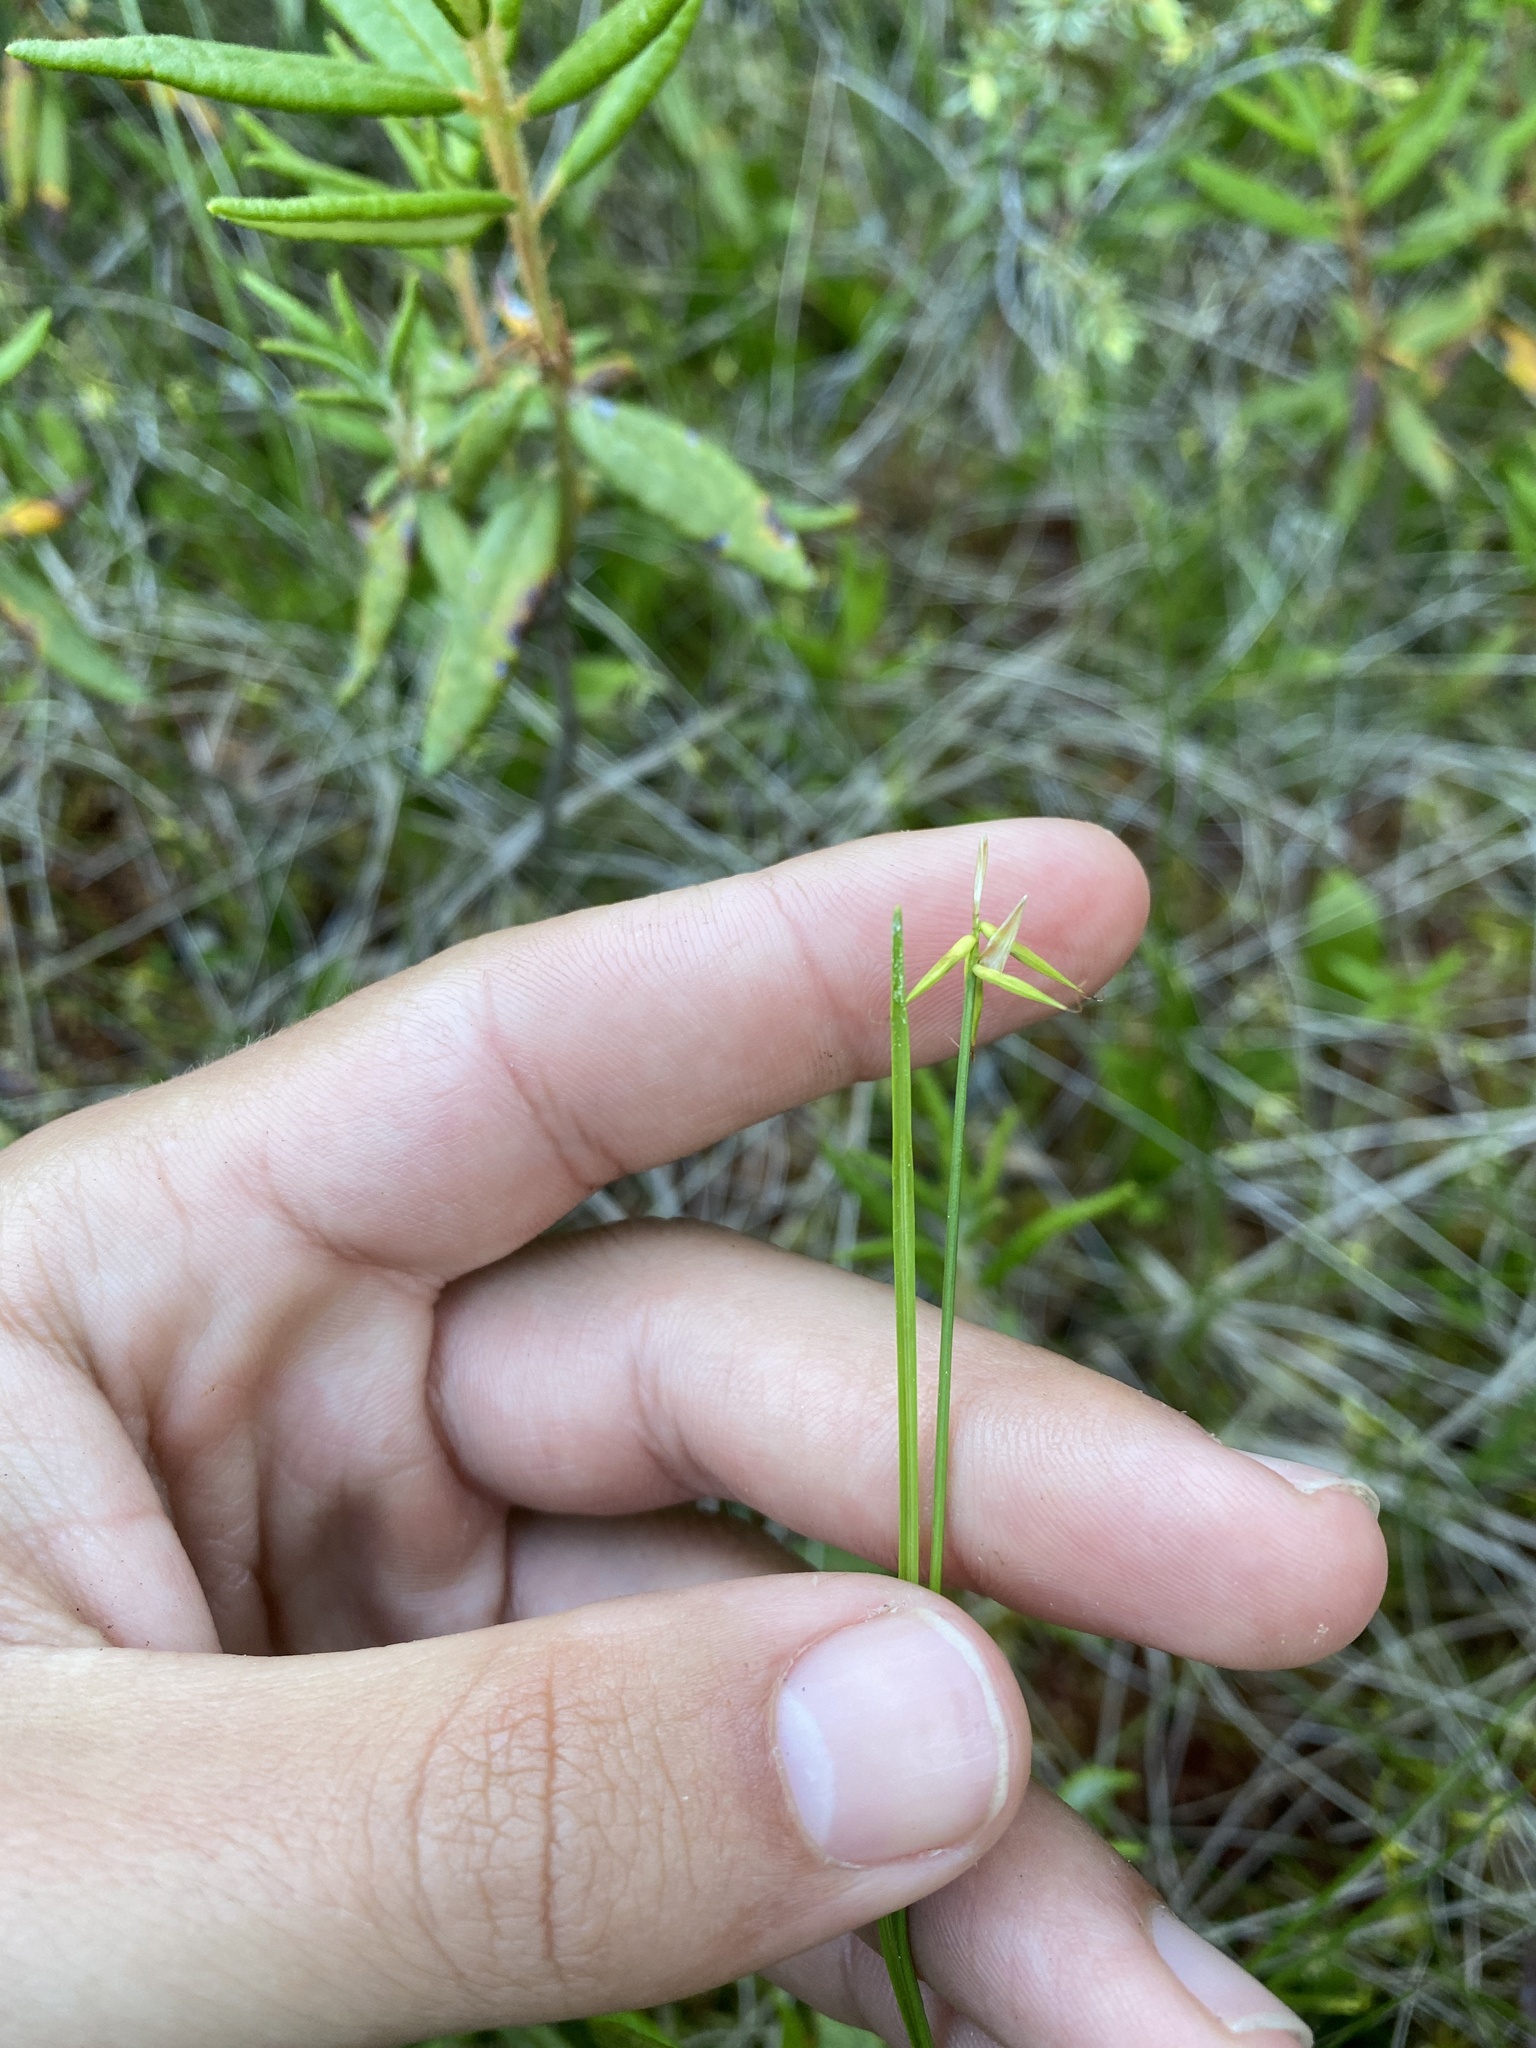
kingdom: Plantae
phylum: Tracheophyta
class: Liliopsida
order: Poales
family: Cyperaceae
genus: Carex
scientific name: Carex pauciflora
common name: Few-flowered sedge
